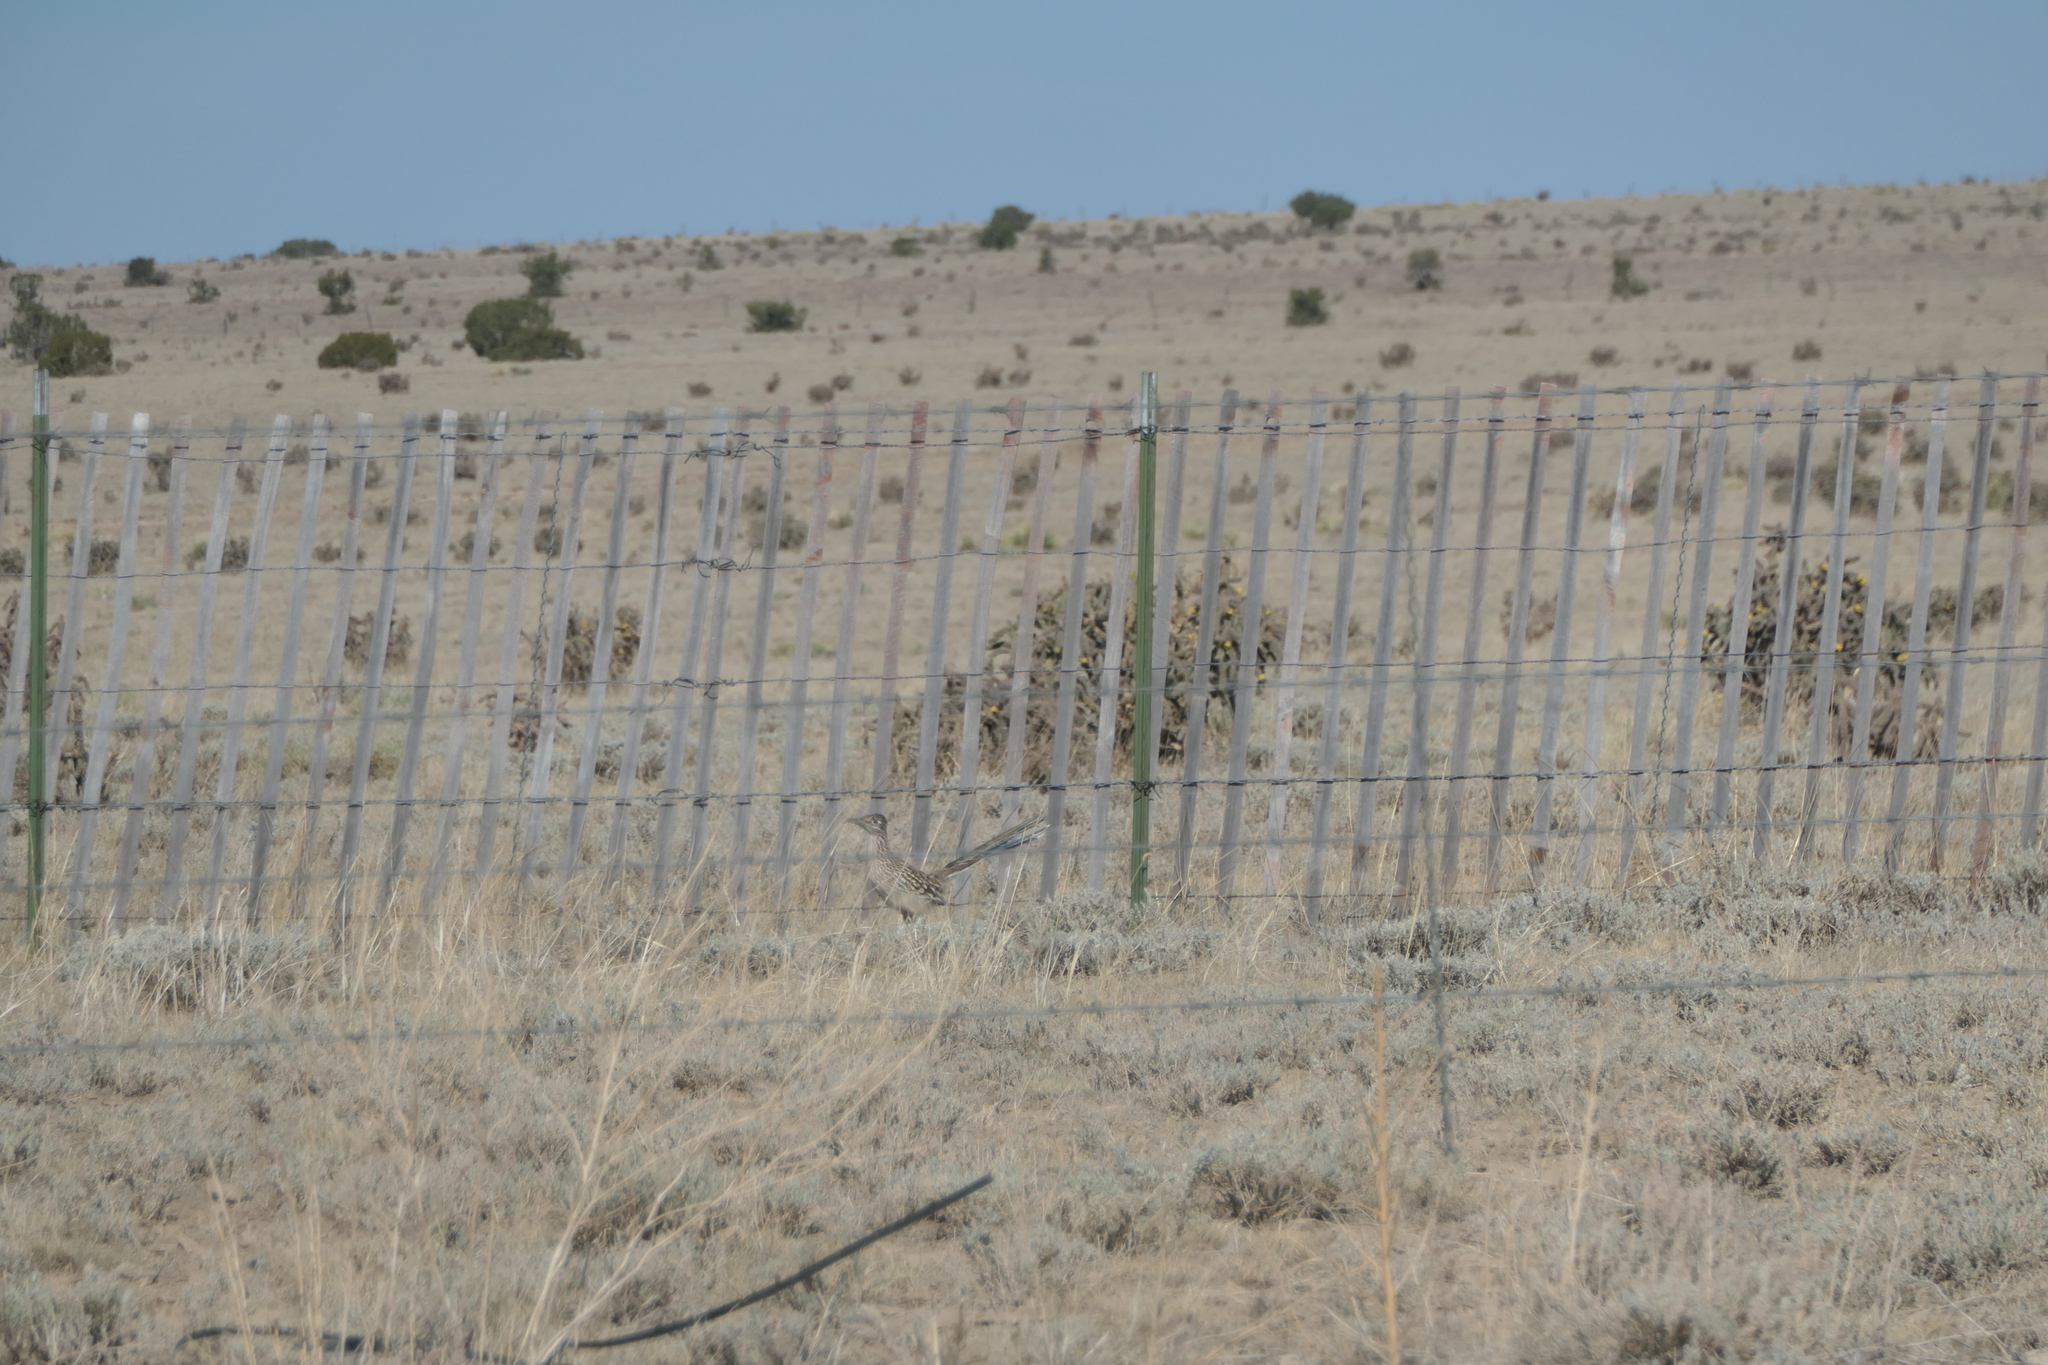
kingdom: Animalia
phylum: Chordata
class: Aves
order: Cuculiformes
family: Cuculidae
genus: Geococcyx
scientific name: Geococcyx californianus
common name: Greater roadrunner
